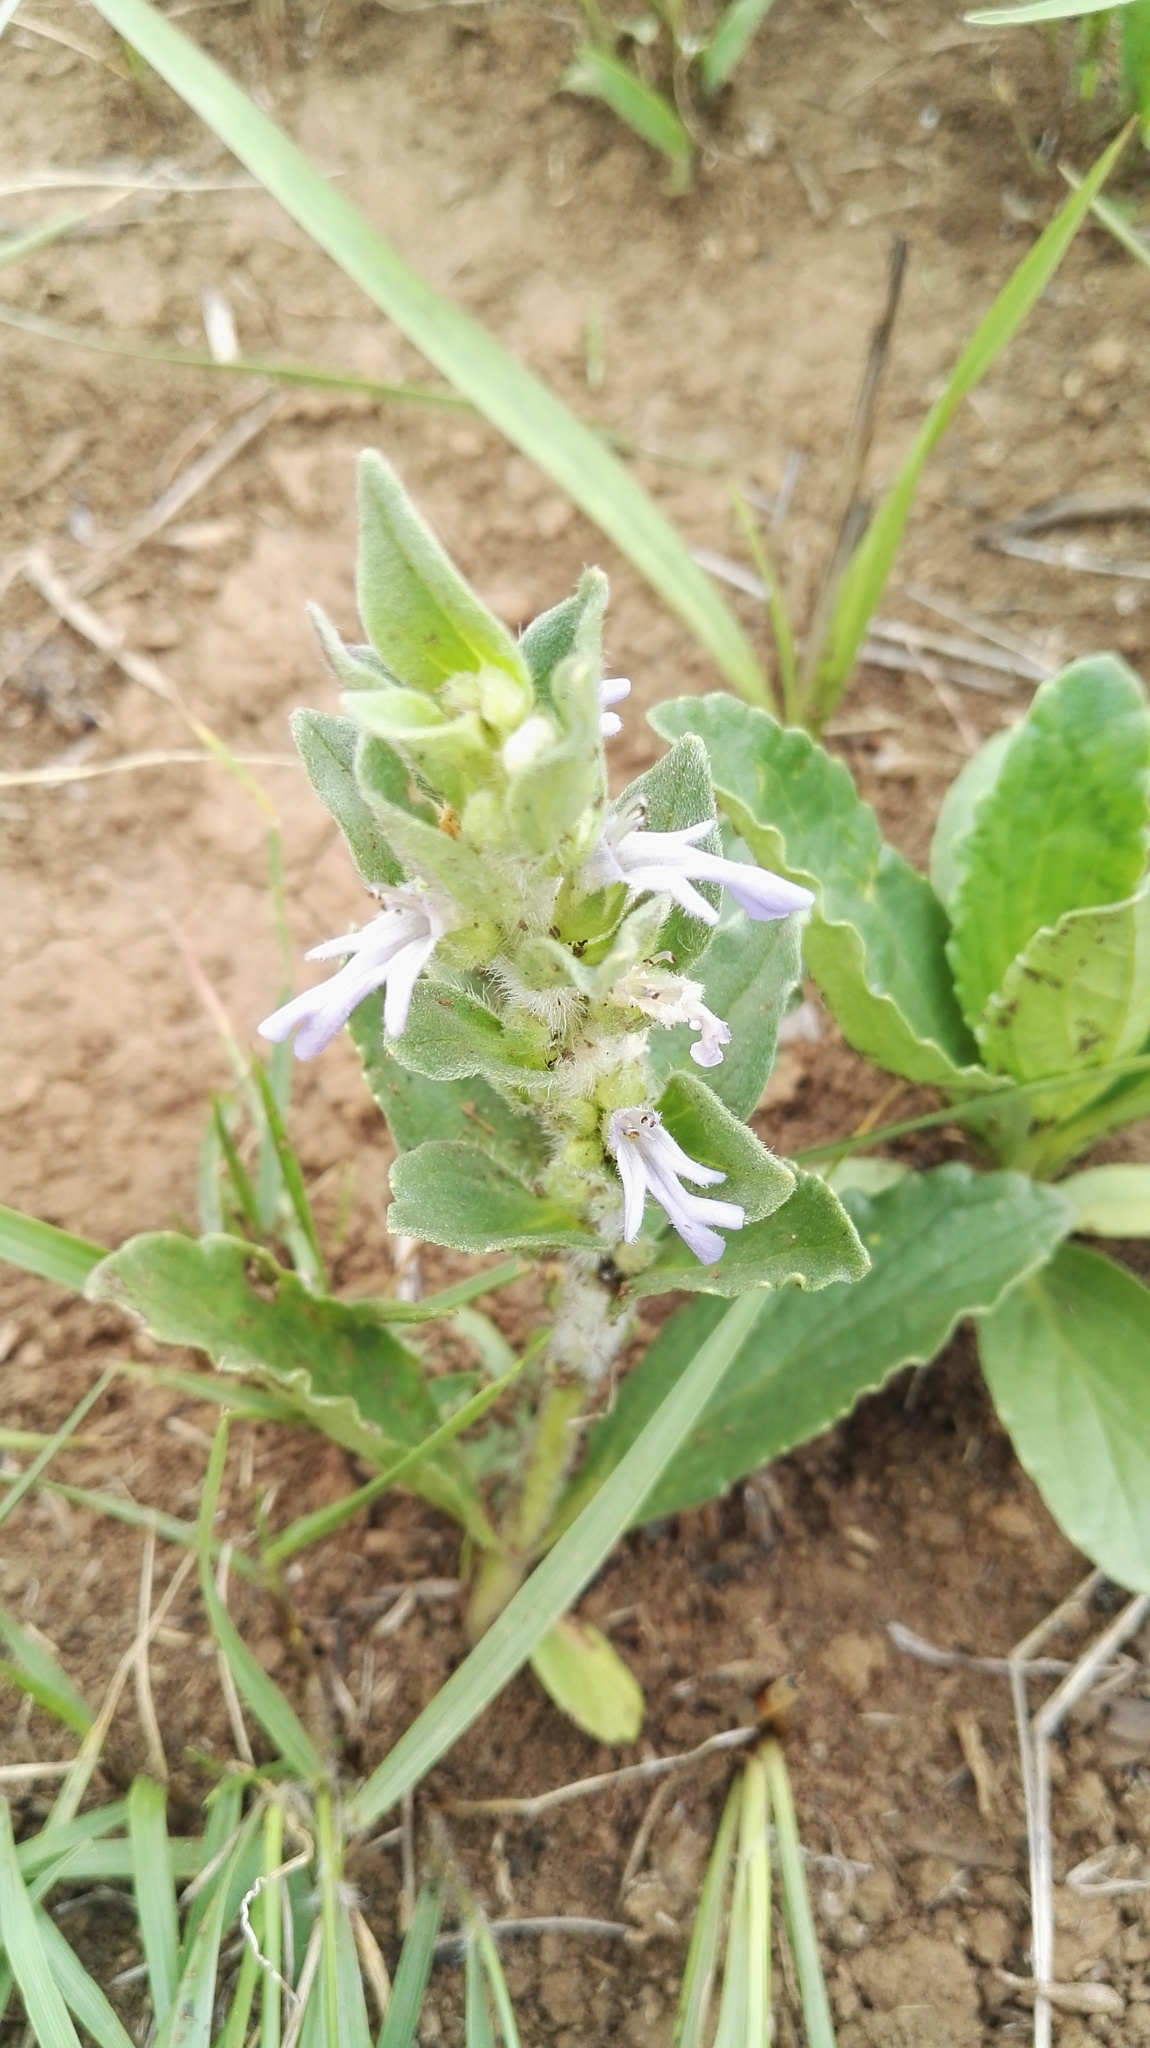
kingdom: Plantae
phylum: Tracheophyta
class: Magnoliopsida
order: Lamiales
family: Lamiaceae
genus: Ajuga
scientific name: Ajuga ophrydis
